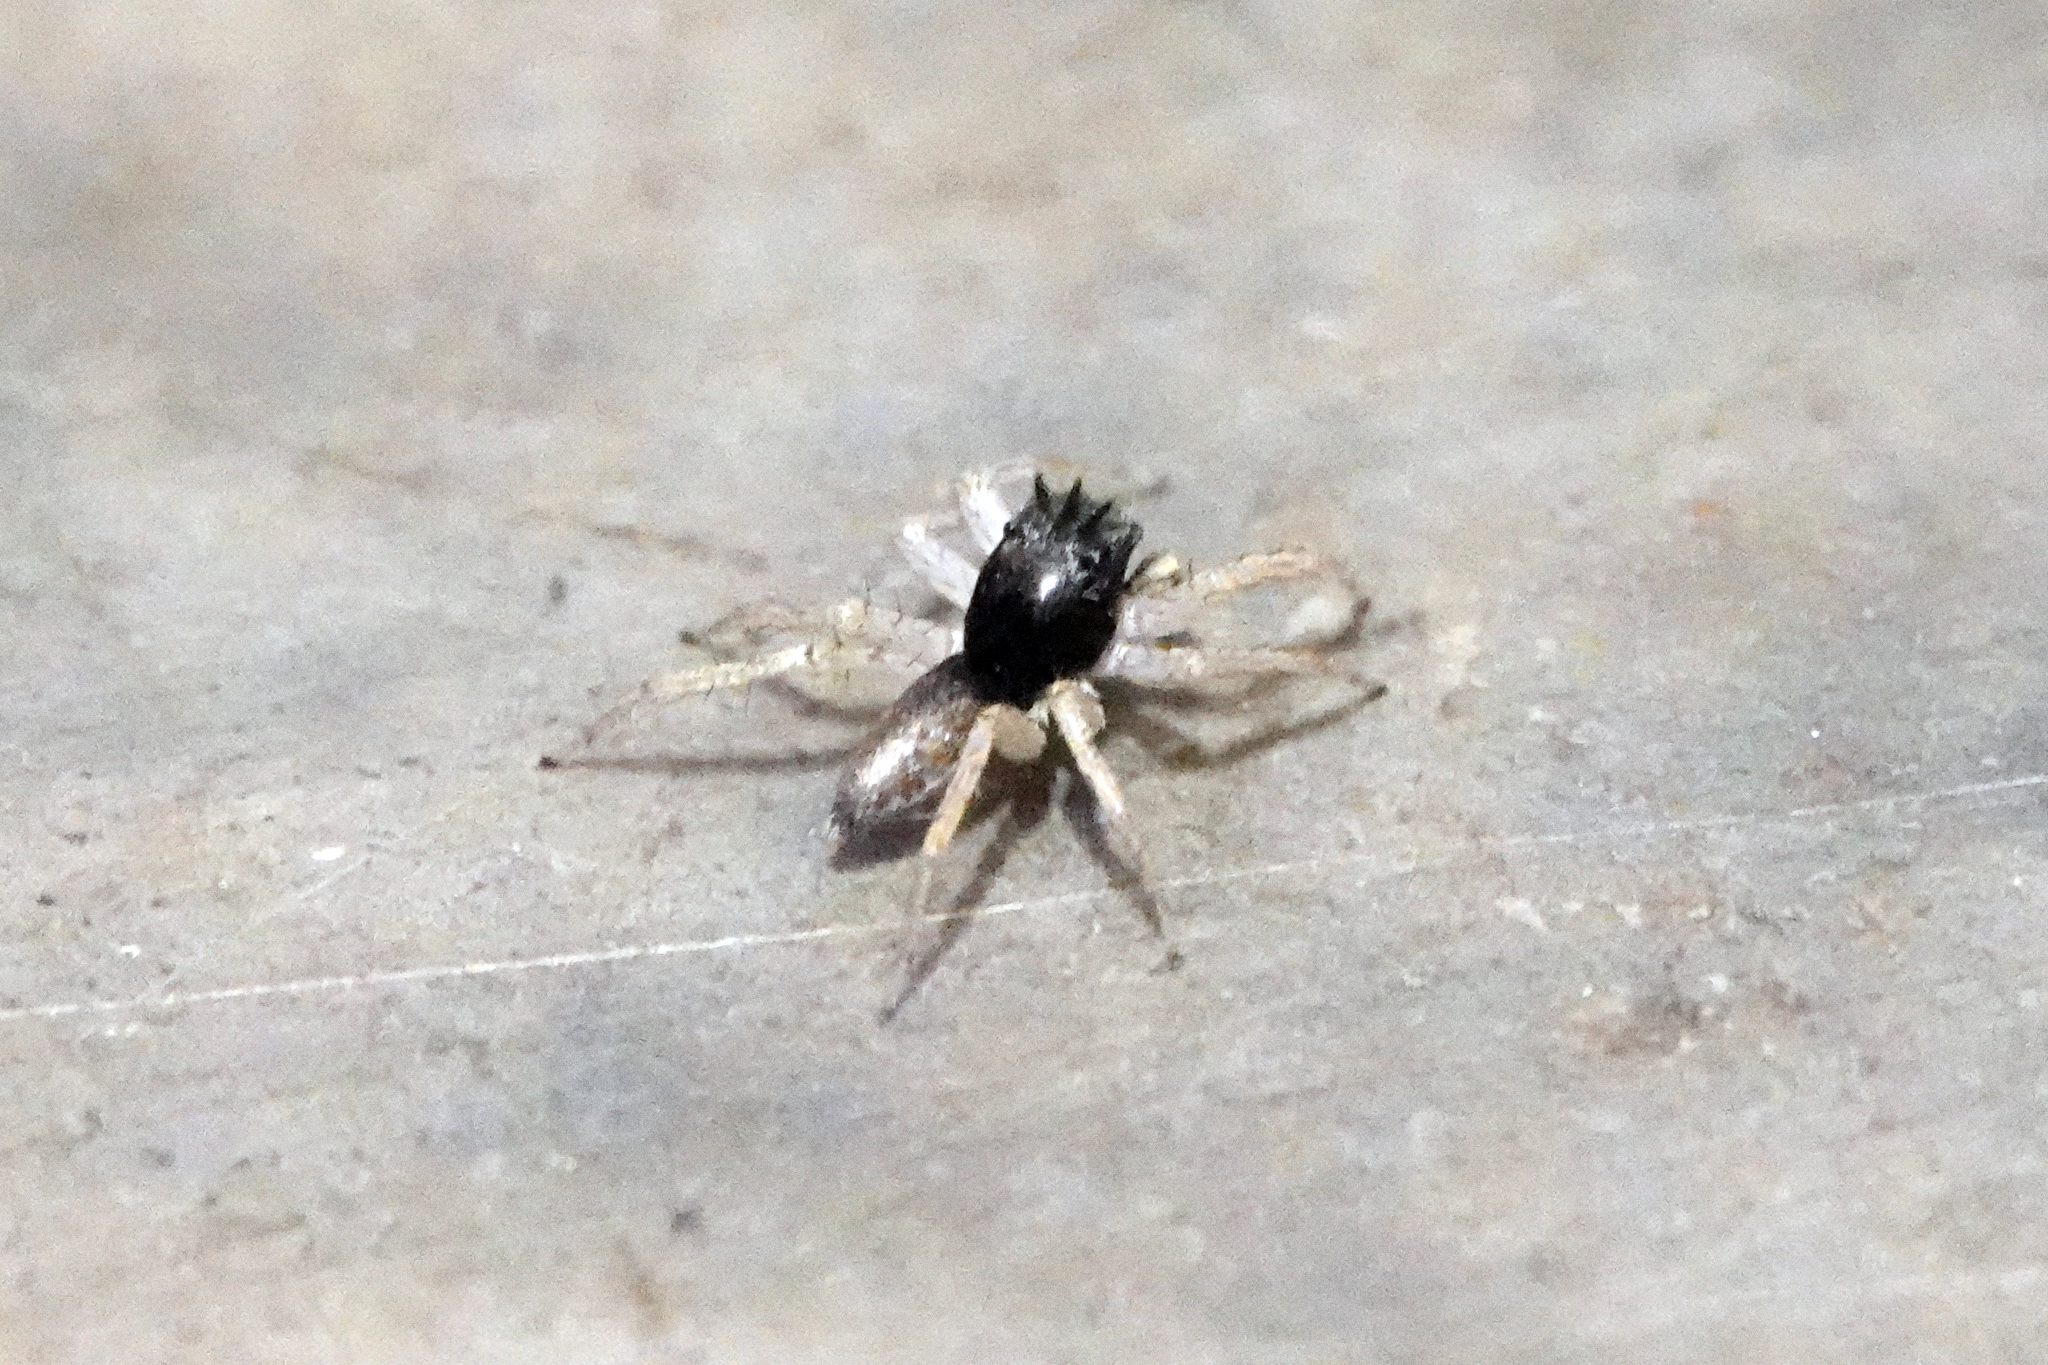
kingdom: Animalia
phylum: Arthropoda
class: Arachnida
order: Araneae
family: Salticidae
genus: Maevia
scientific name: Maevia inclemens
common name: Dimorphic jumper
